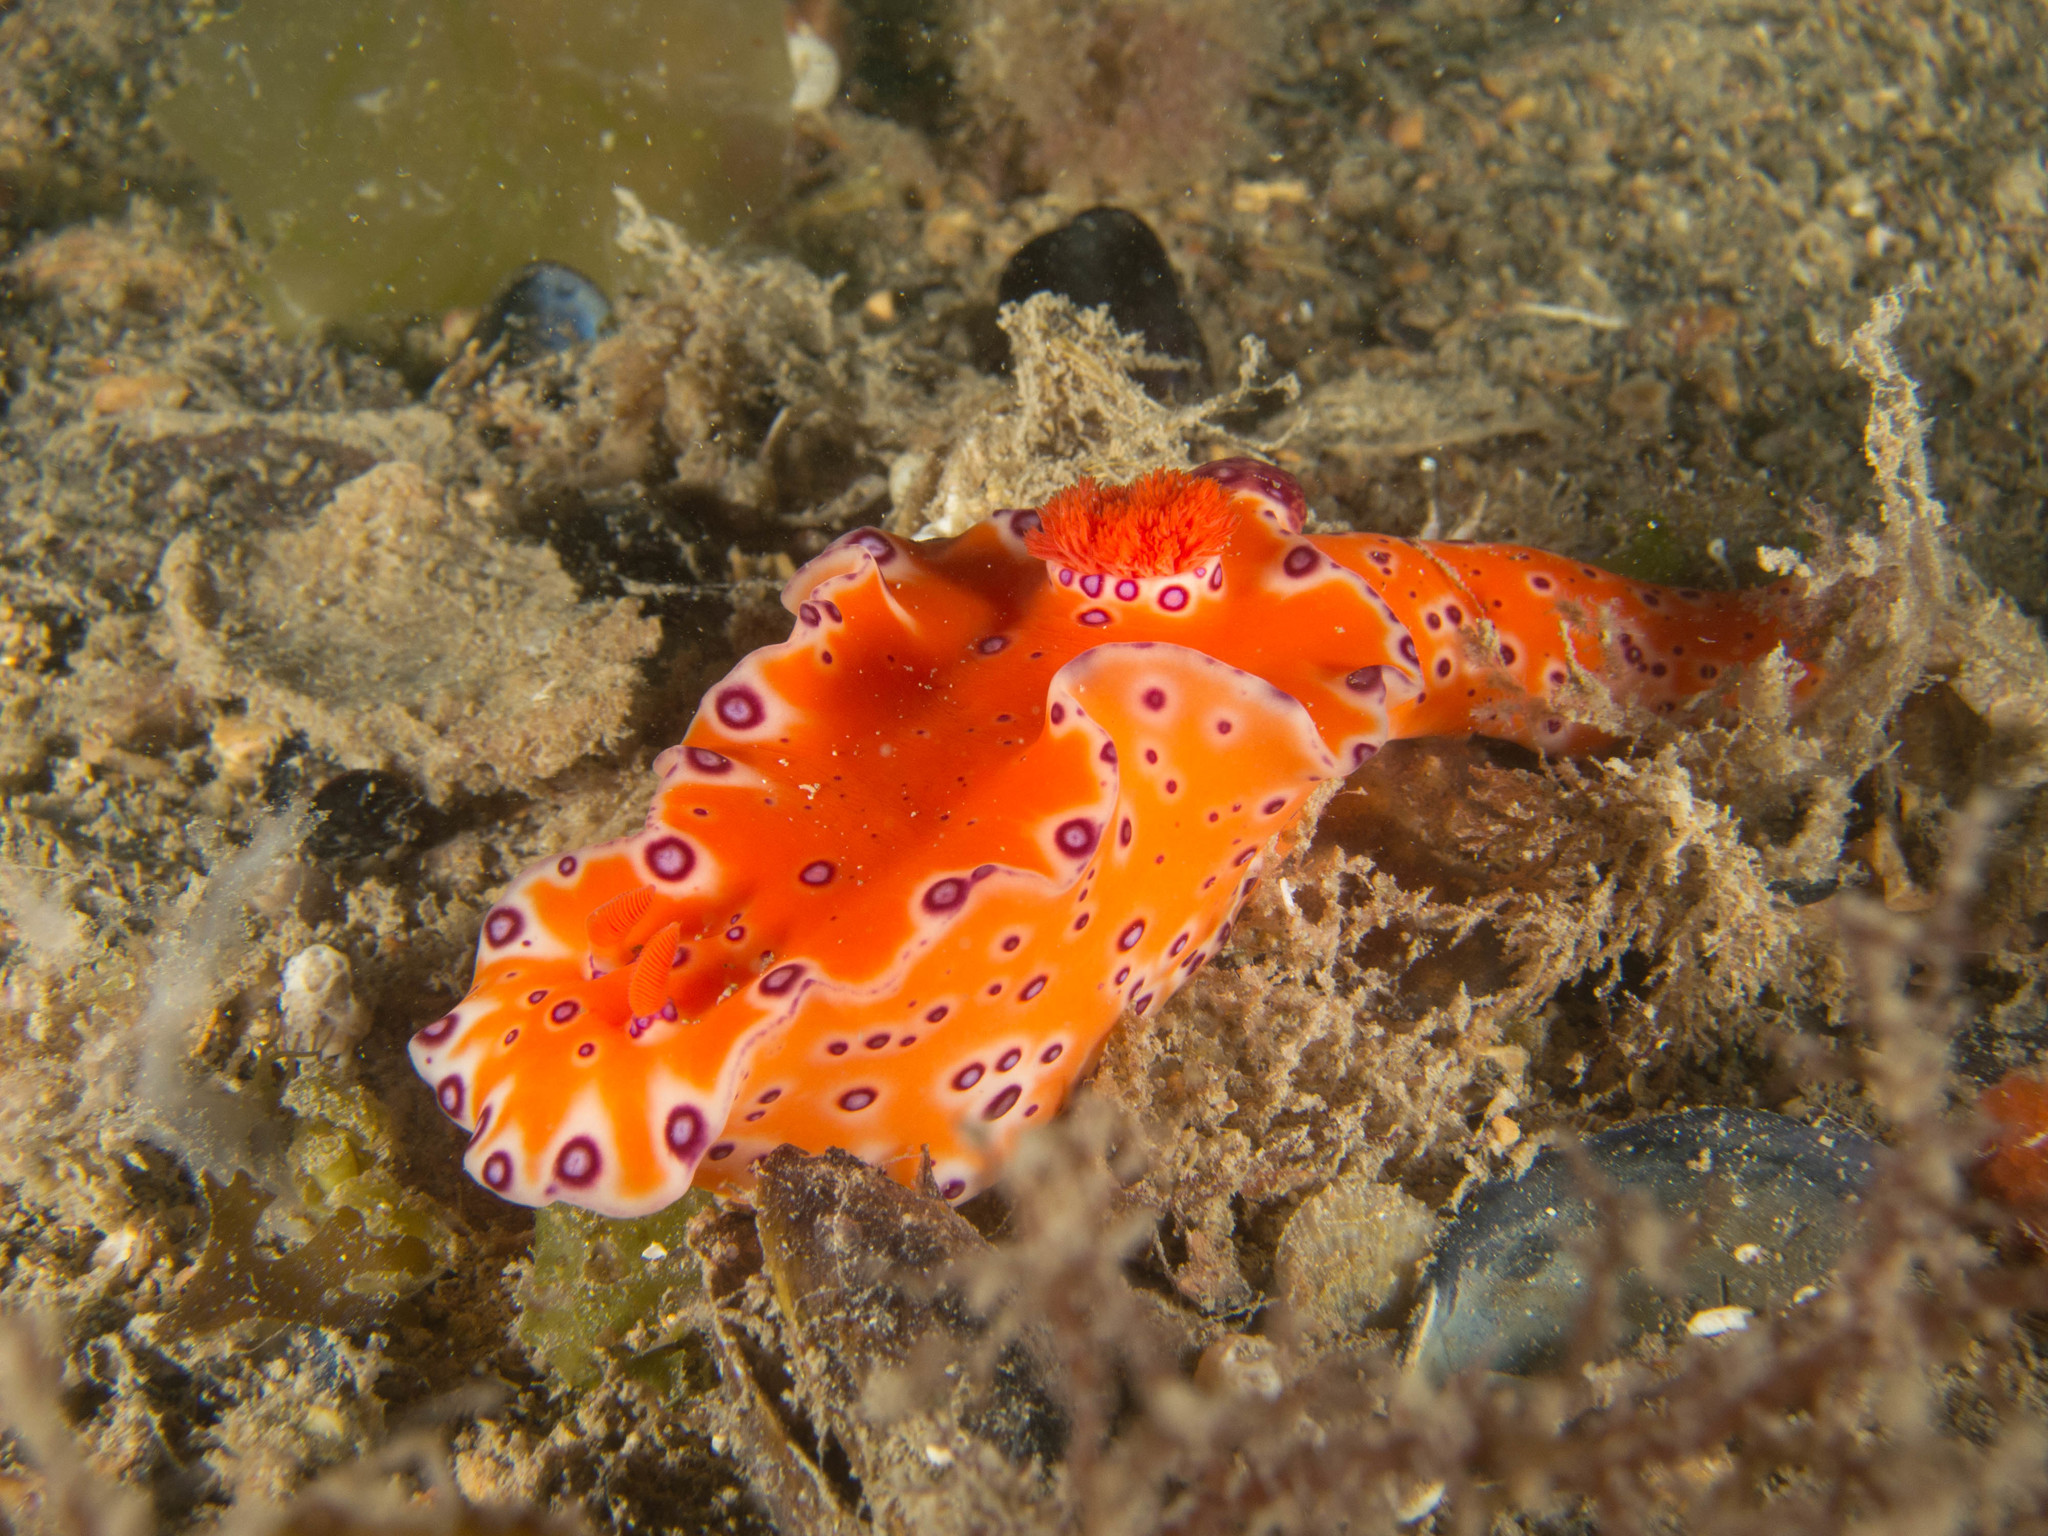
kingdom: Animalia
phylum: Mollusca
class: Gastropoda
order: Nudibranchia
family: Chromodorididae
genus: Ceratosoma
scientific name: Ceratosoma brevicaudatum
